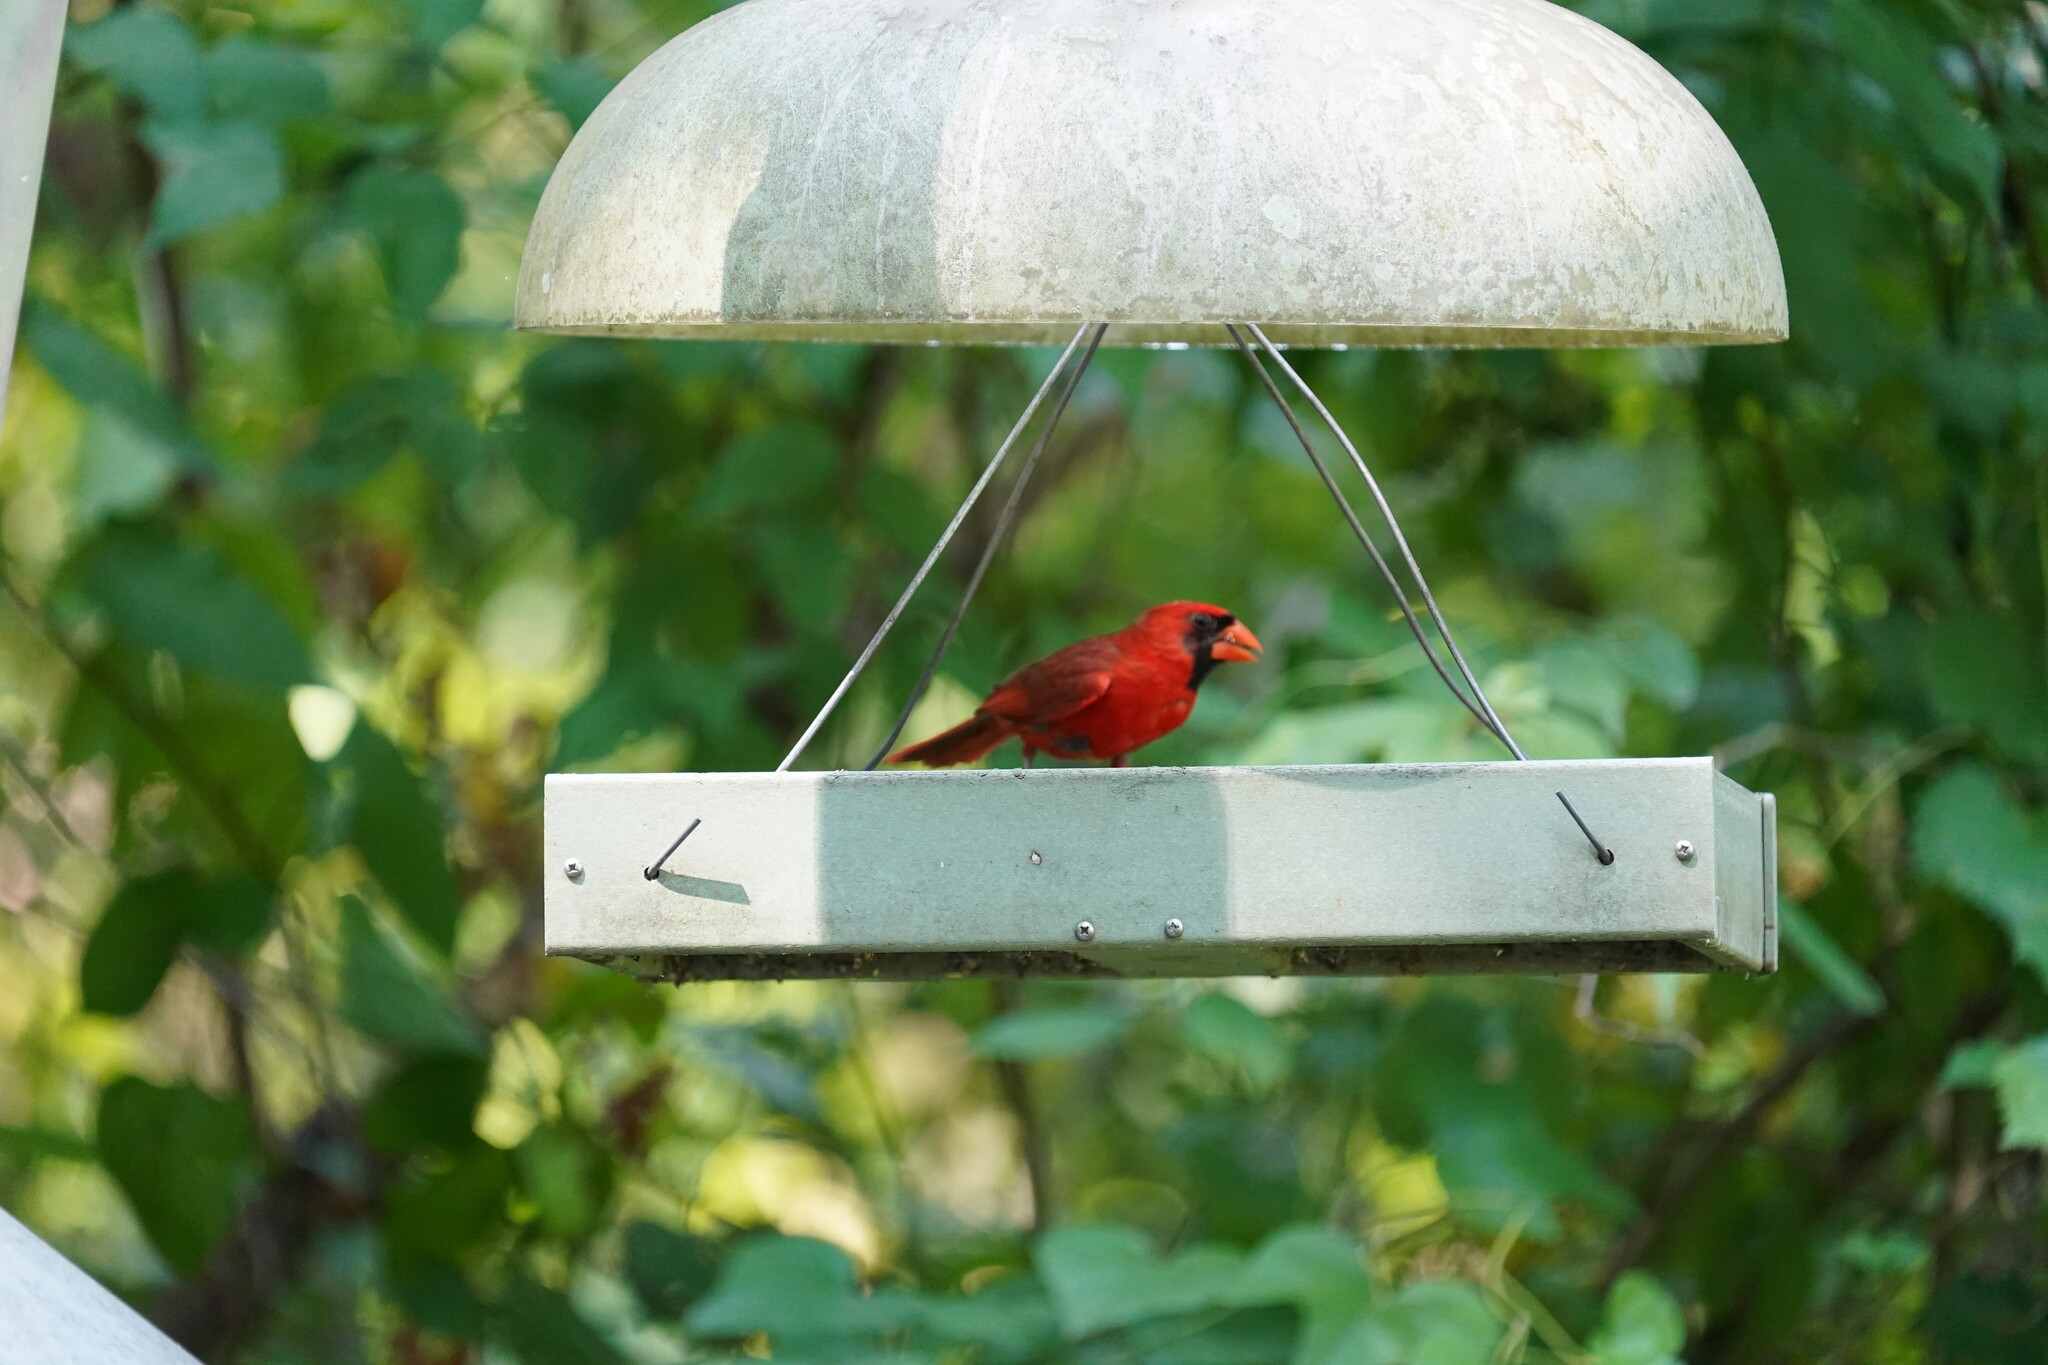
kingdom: Animalia
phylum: Chordata
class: Aves
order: Passeriformes
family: Cardinalidae
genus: Cardinalis
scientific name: Cardinalis cardinalis
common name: Northern cardinal
